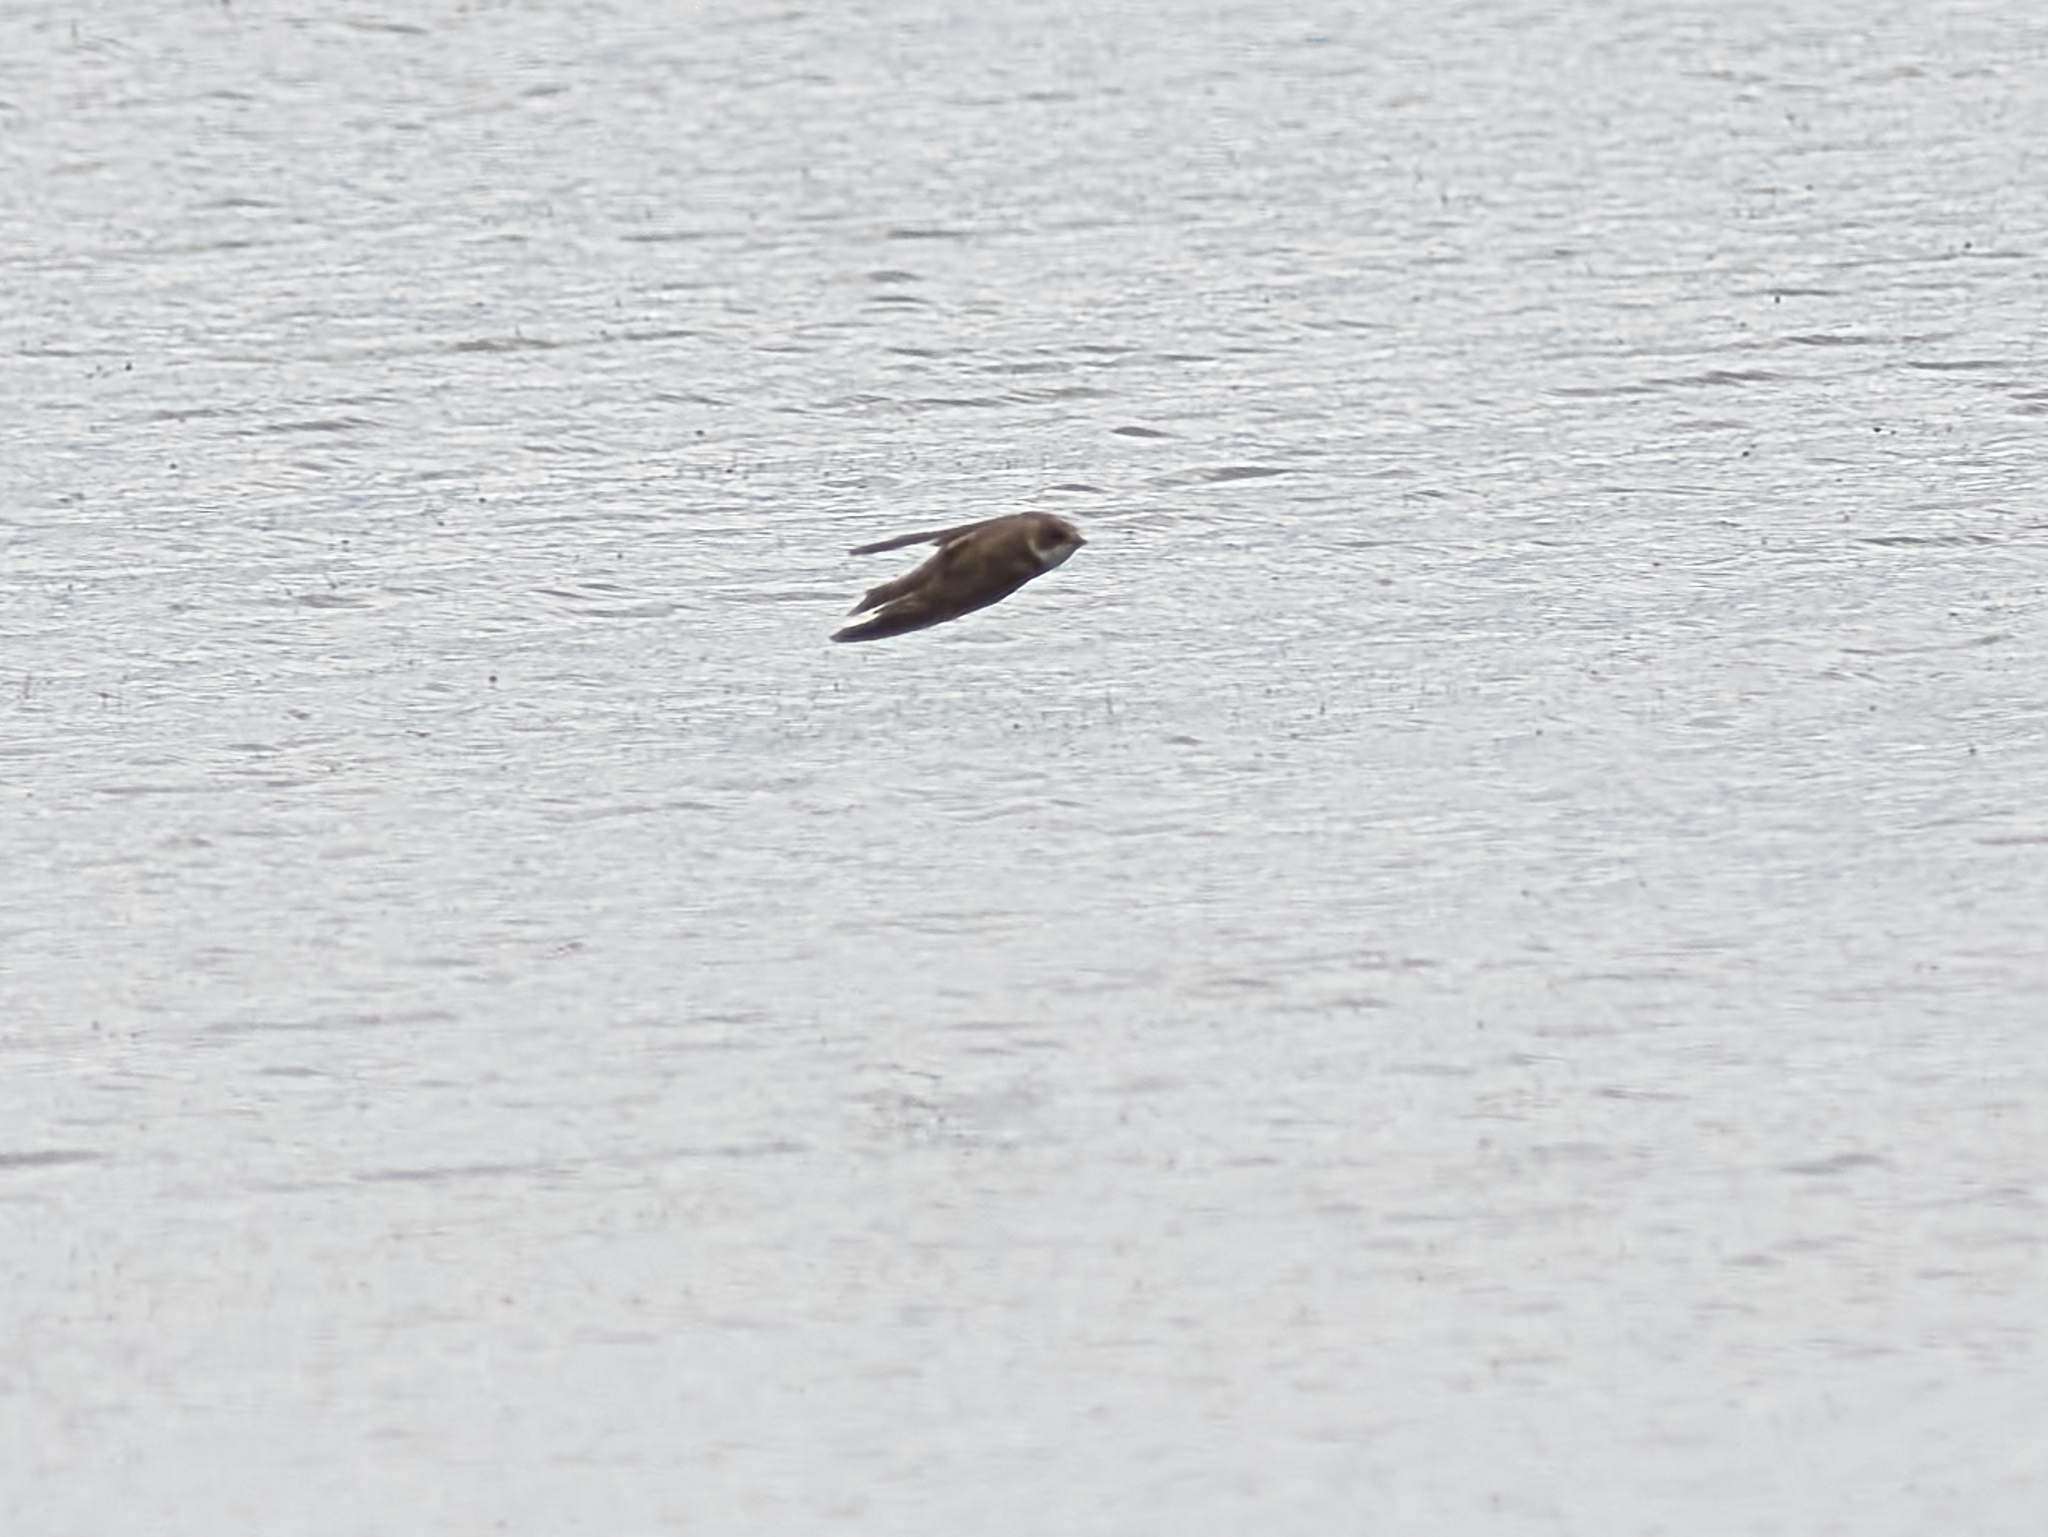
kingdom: Animalia
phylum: Chordata
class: Aves
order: Passeriformes
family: Hirundinidae
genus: Riparia
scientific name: Riparia riparia
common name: Sand martin
